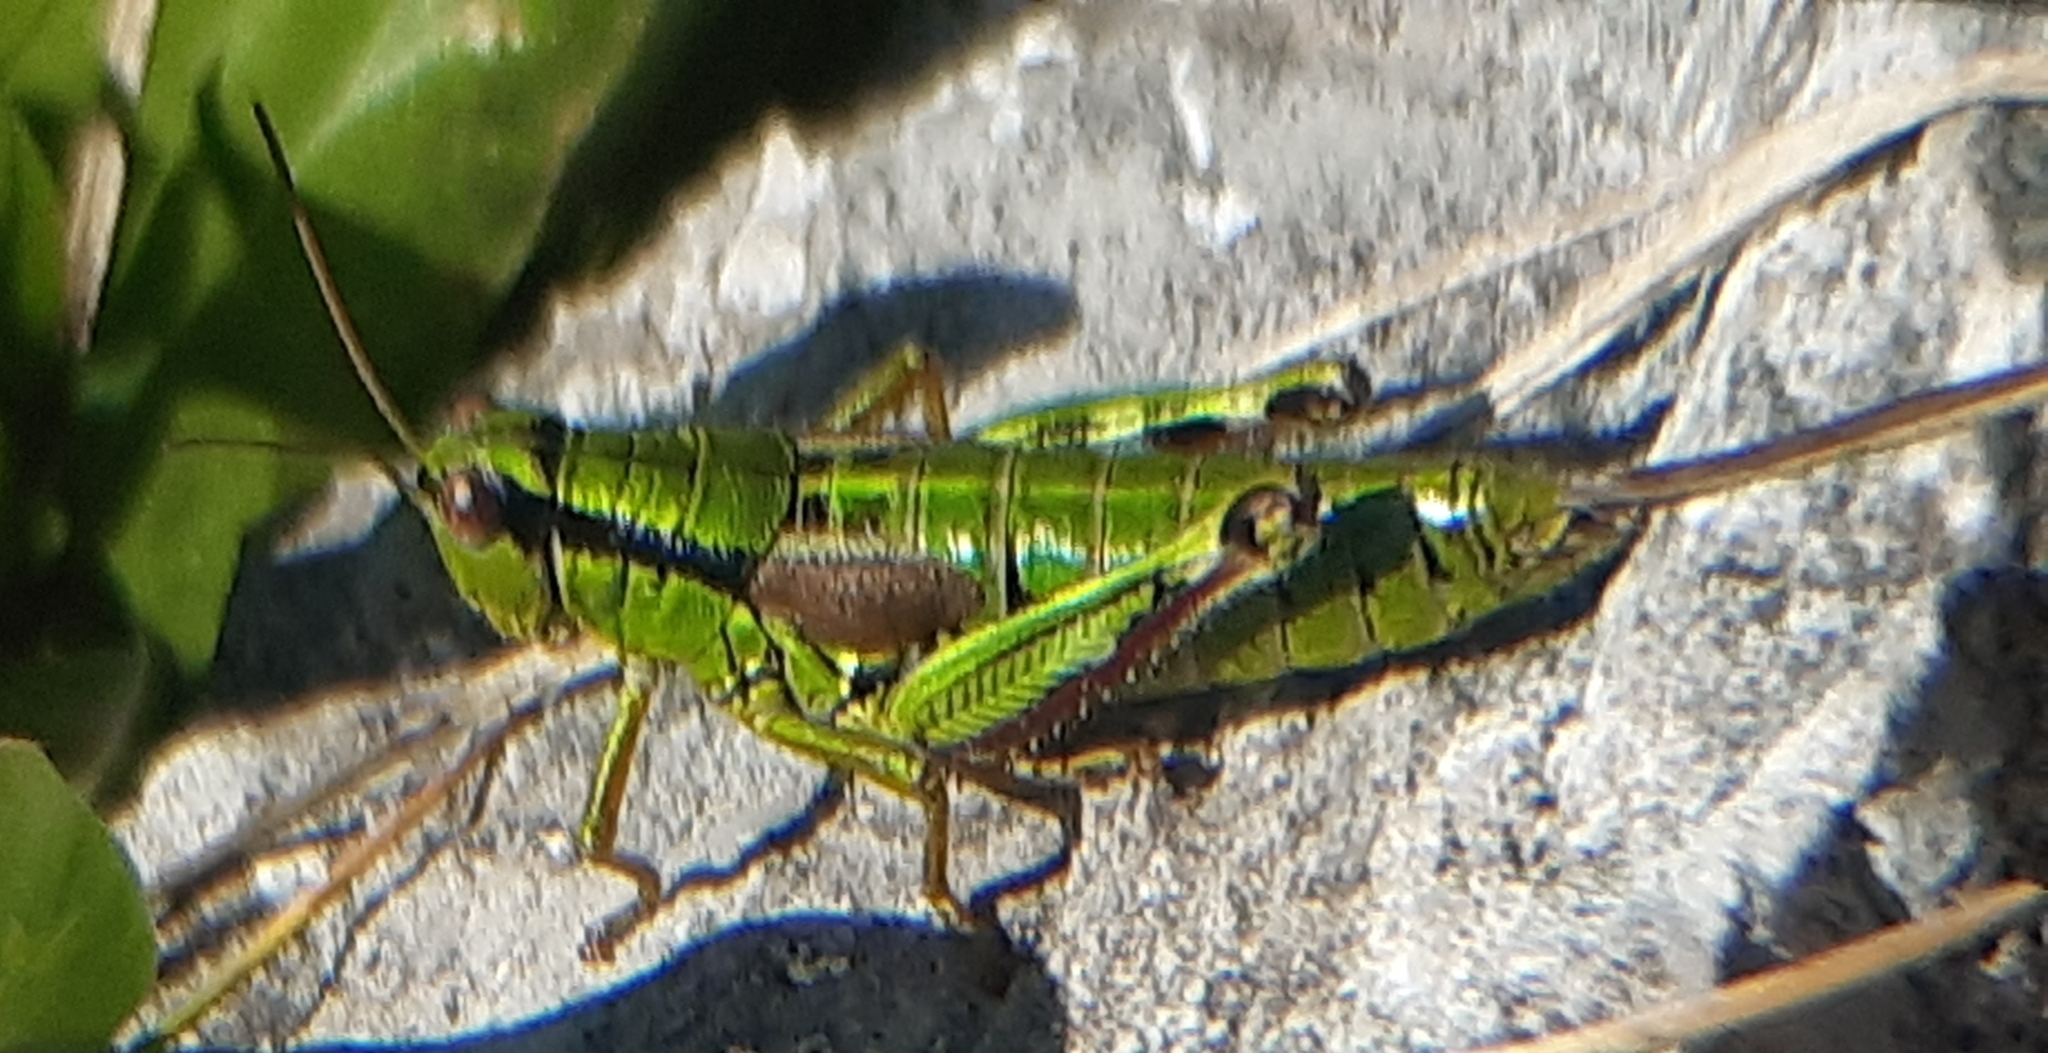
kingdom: Animalia
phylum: Arthropoda
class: Insecta
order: Orthoptera
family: Acrididae
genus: Miramella
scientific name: Miramella alpina
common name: Green mountain grasshopper
